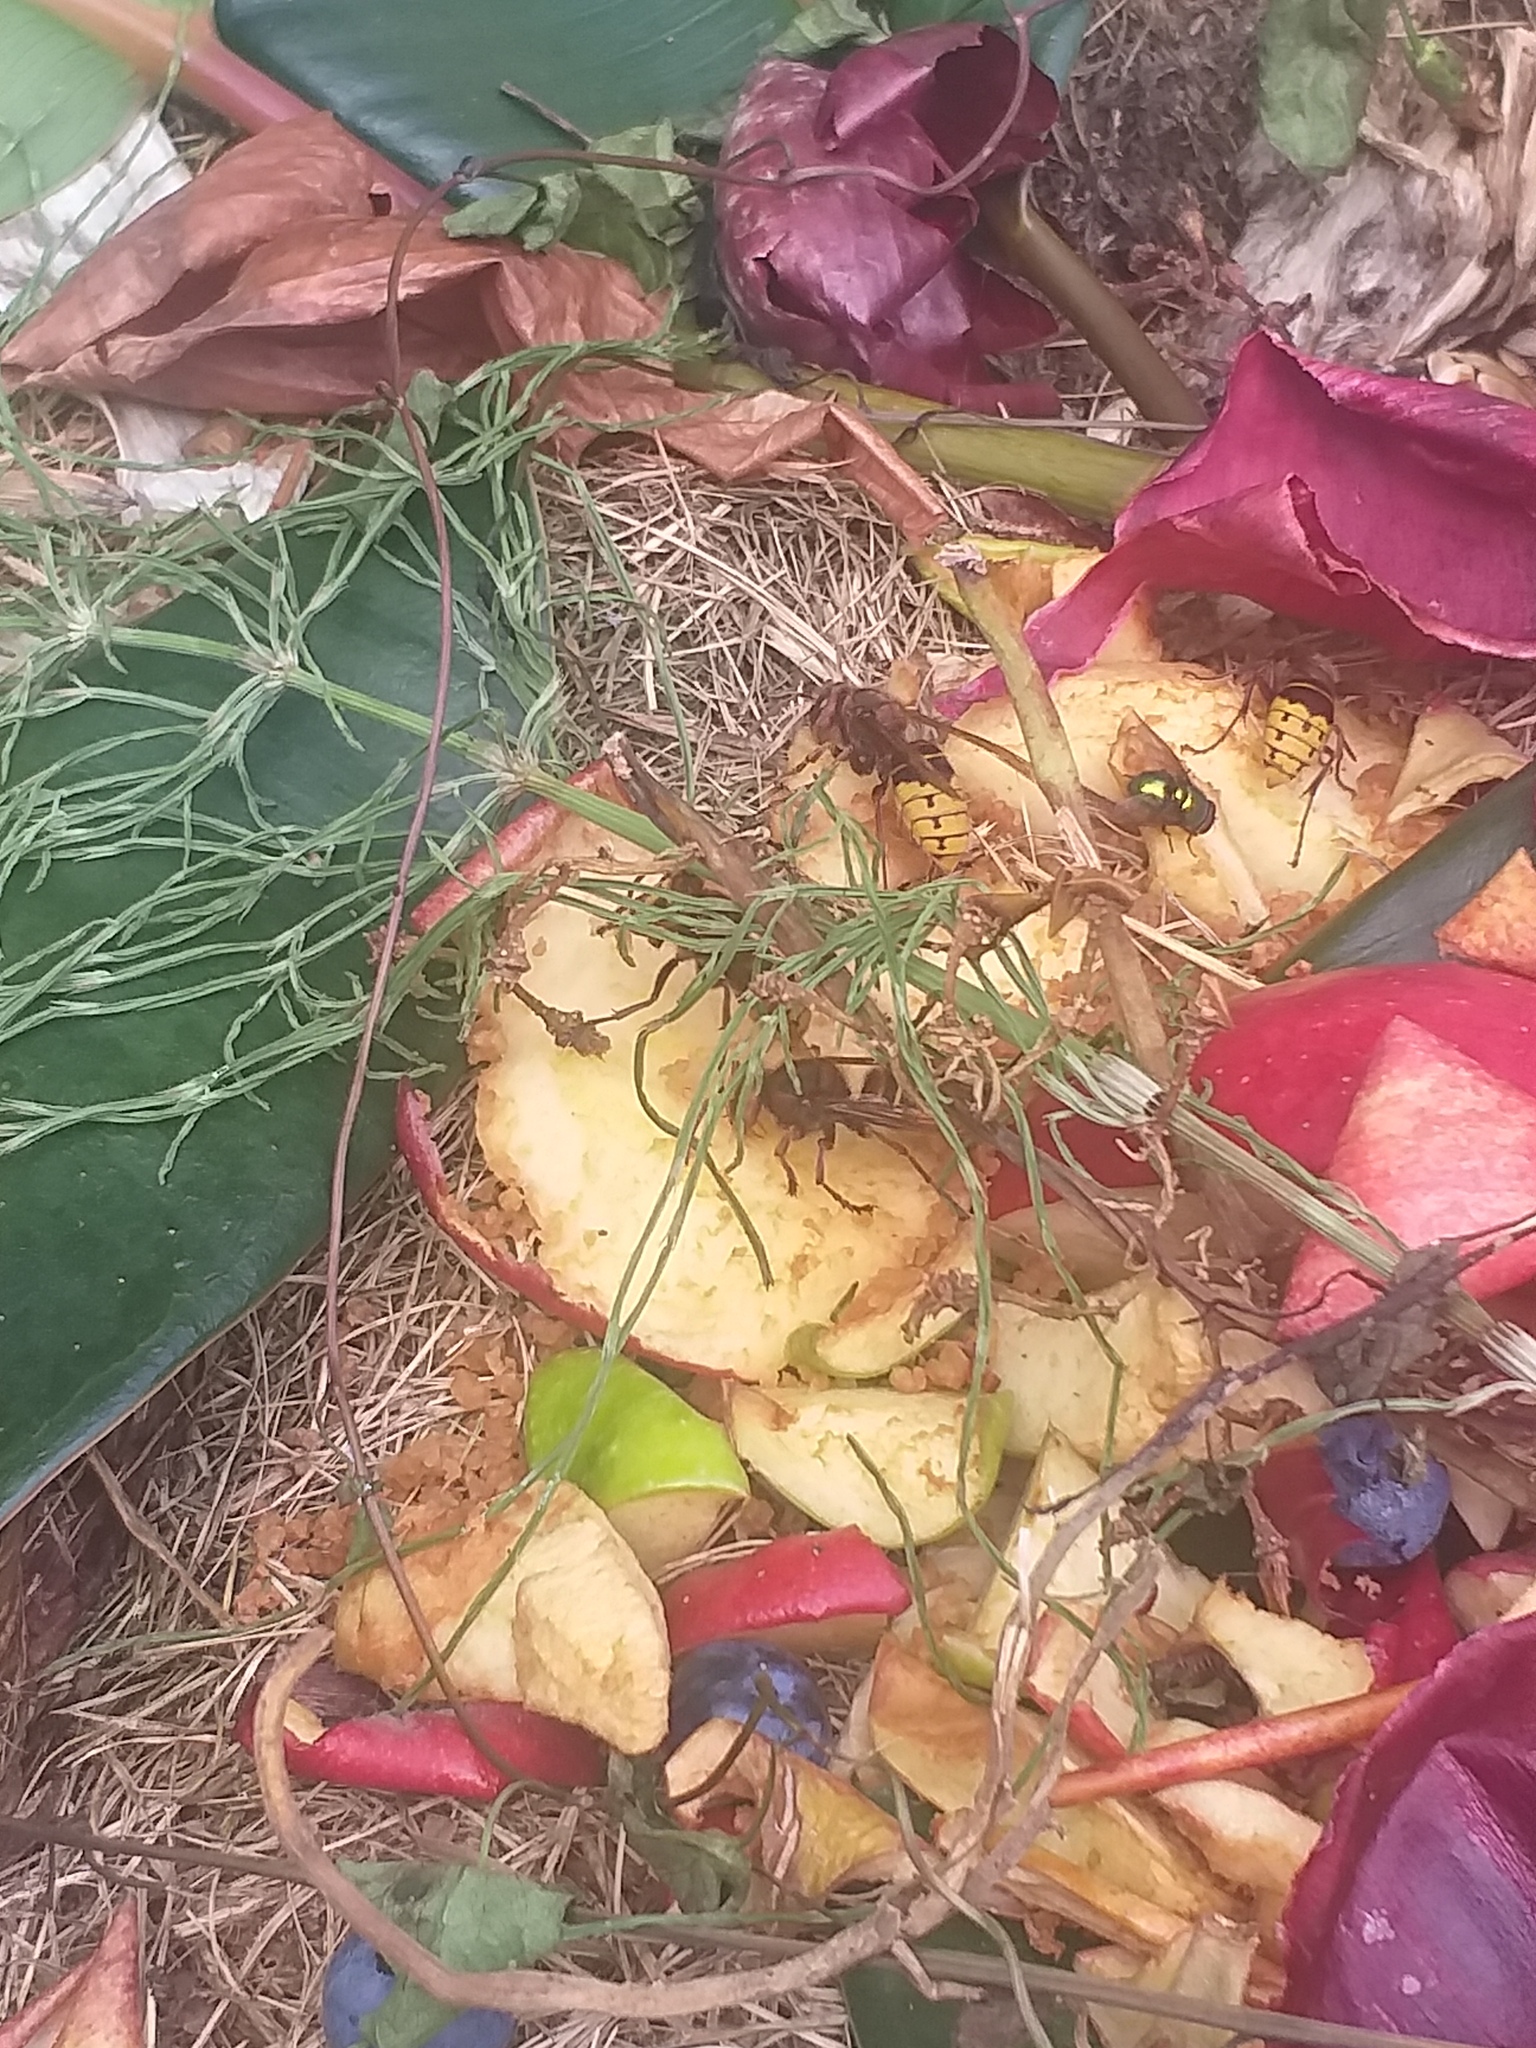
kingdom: Animalia
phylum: Arthropoda
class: Insecta
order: Hymenoptera
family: Vespidae
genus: Vespa
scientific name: Vespa crabro
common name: Hornet
